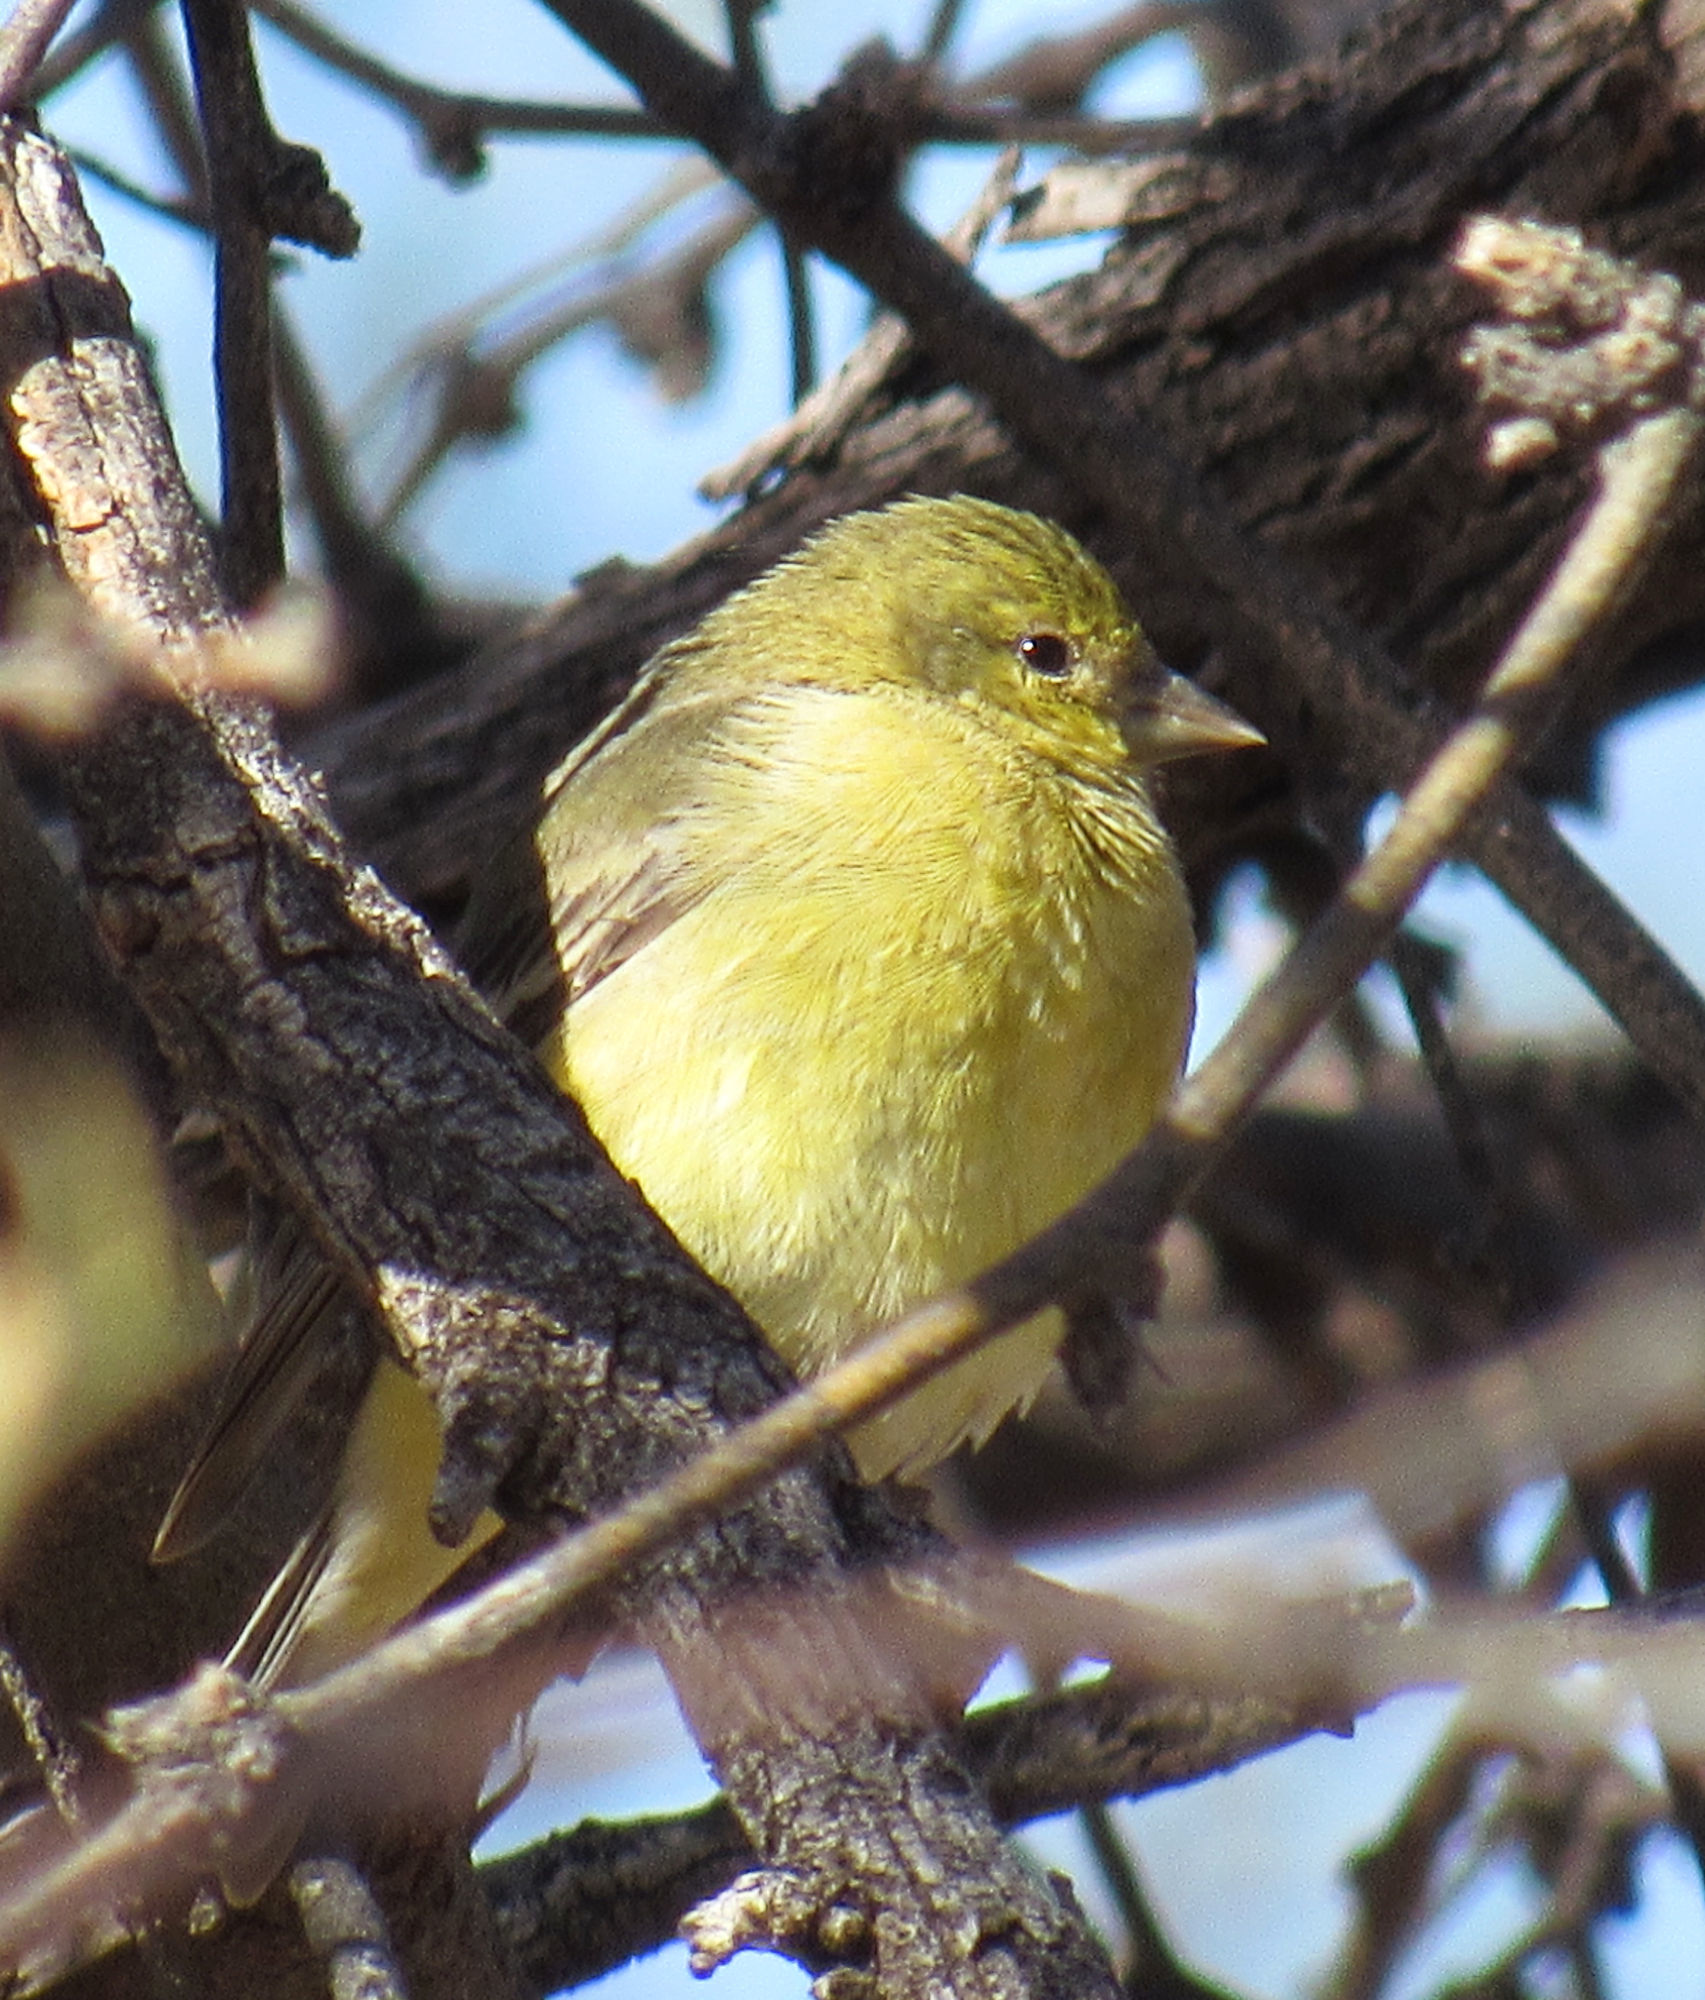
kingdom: Animalia
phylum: Chordata
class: Aves
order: Passeriformes
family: Fringillidae
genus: Spinus
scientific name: Spinus psaltria
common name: Lesser goldfinch
